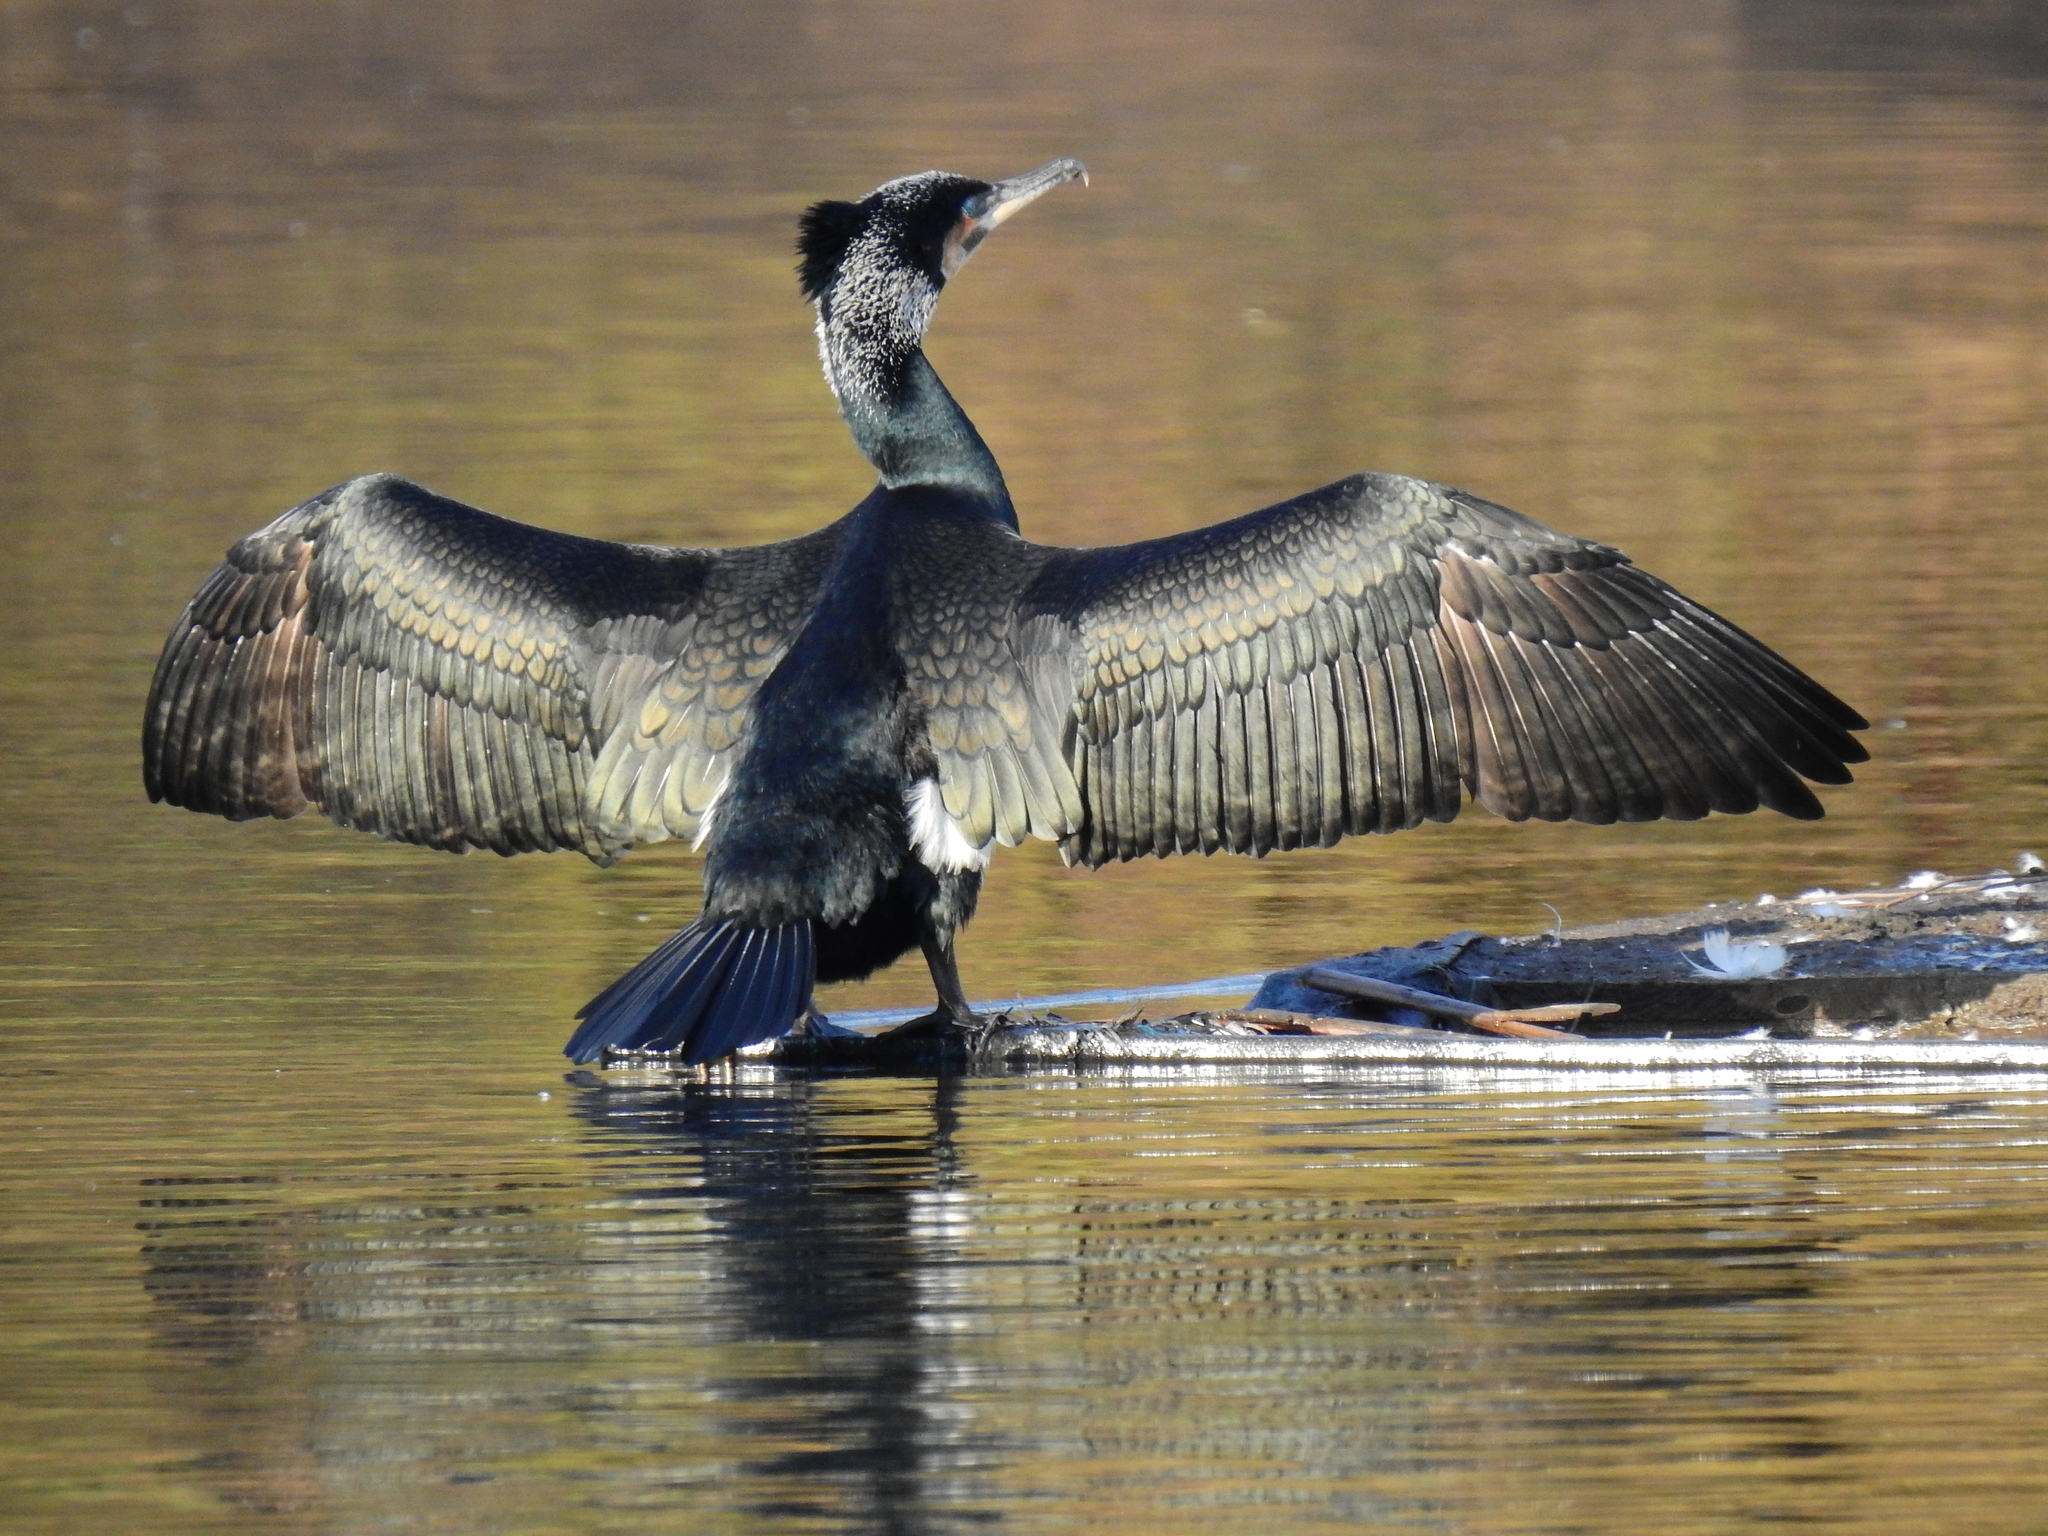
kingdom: Animalia
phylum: Chordata
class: Aves
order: Suliformes
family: Phalacrocoracidae
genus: Phalacrocorax
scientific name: Phalacrocorax carbo
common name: Great cormorant
